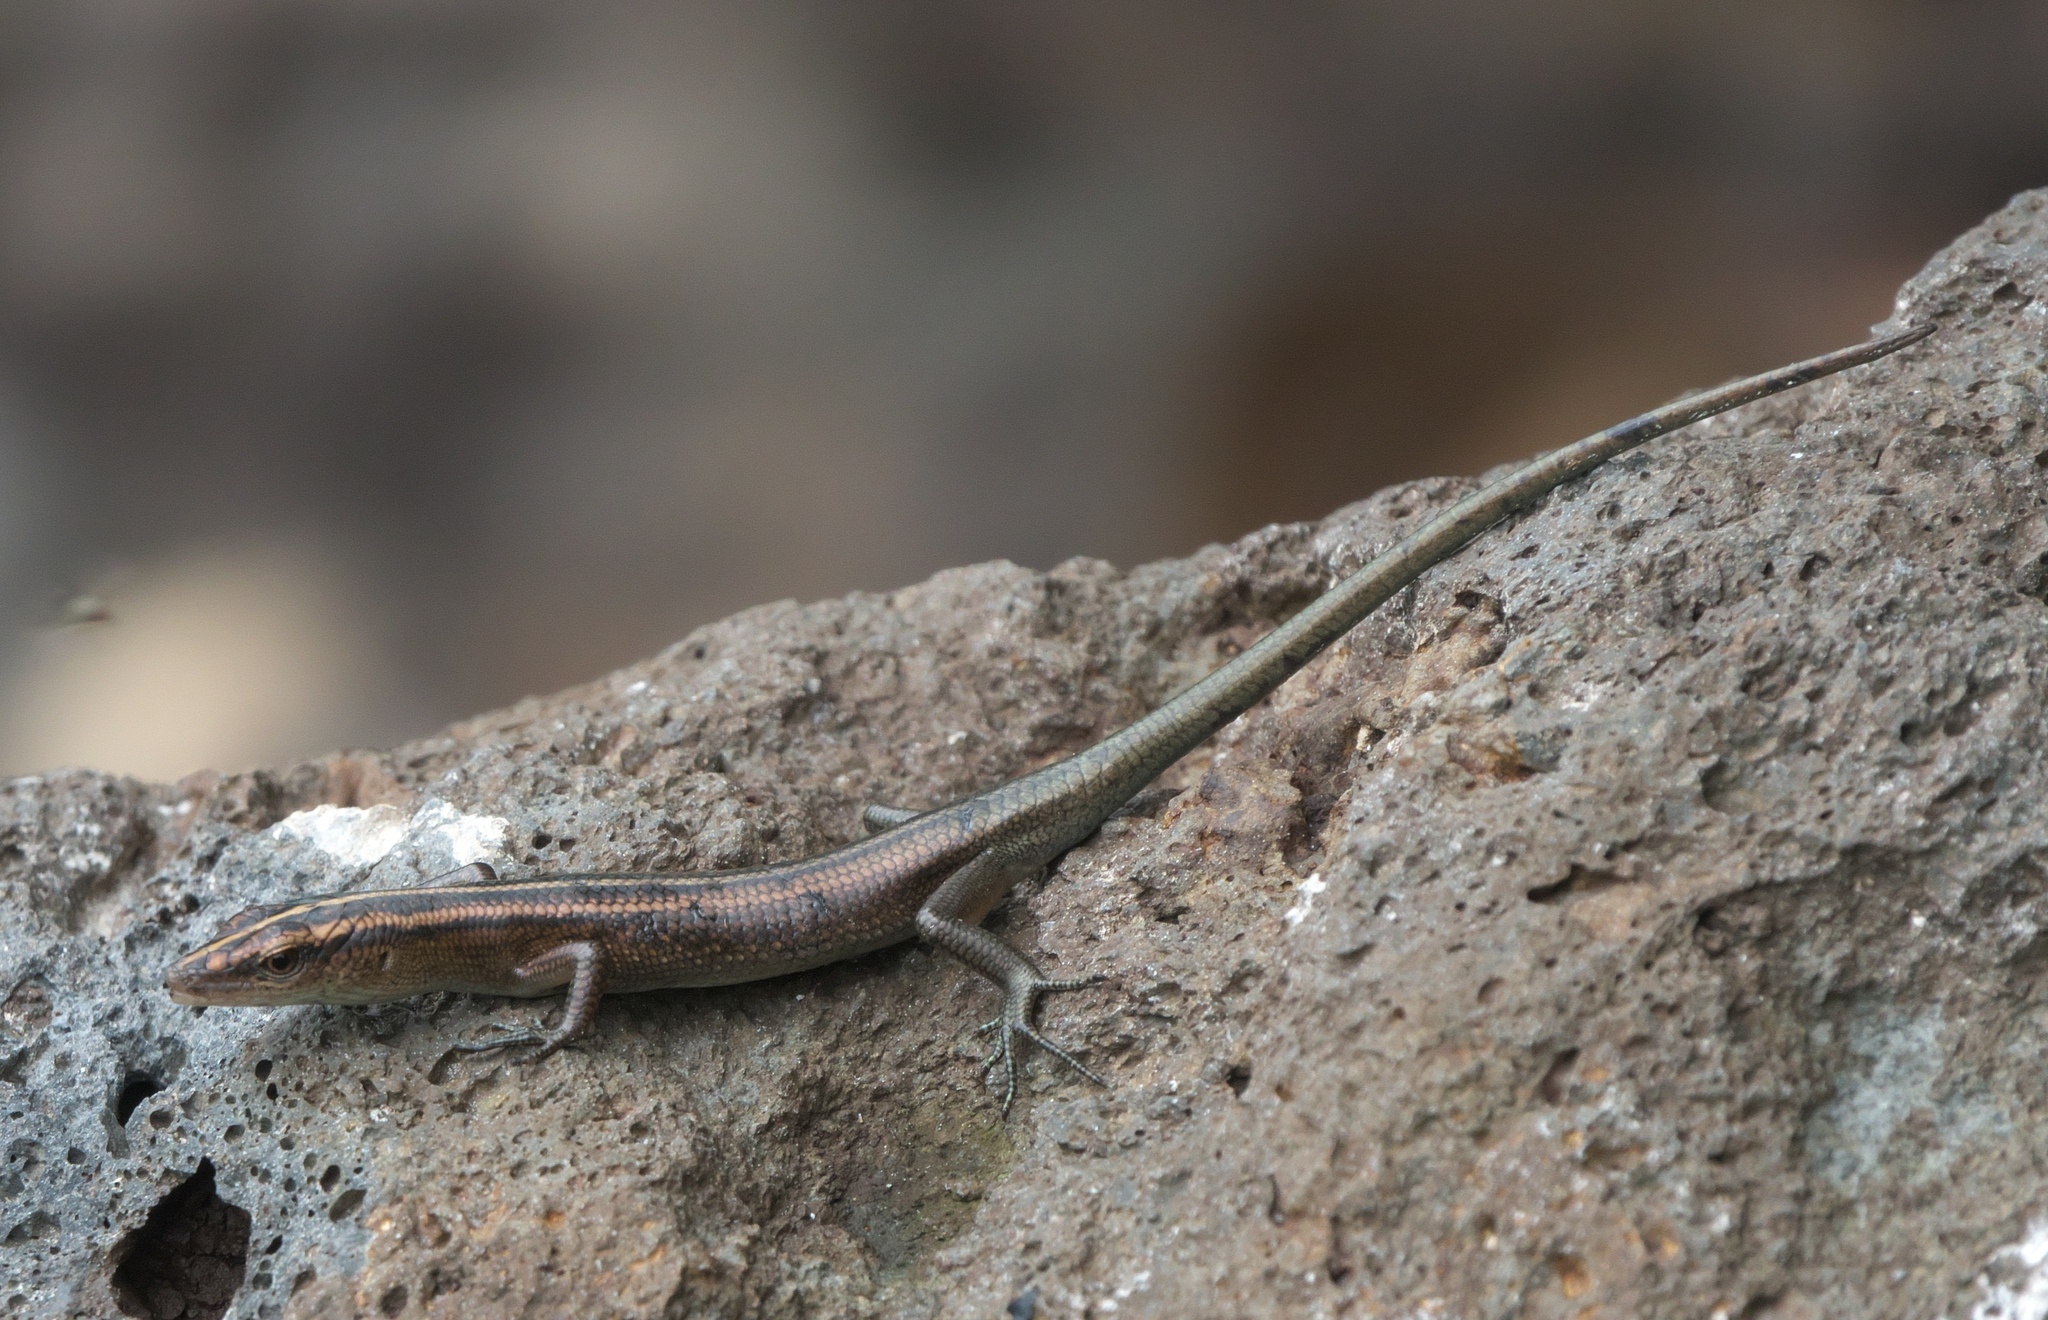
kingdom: Animalia
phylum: Chordata
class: Squamata
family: Scincidae
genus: Emoia
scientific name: Emoia cyanura
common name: Copper-tailed skink
